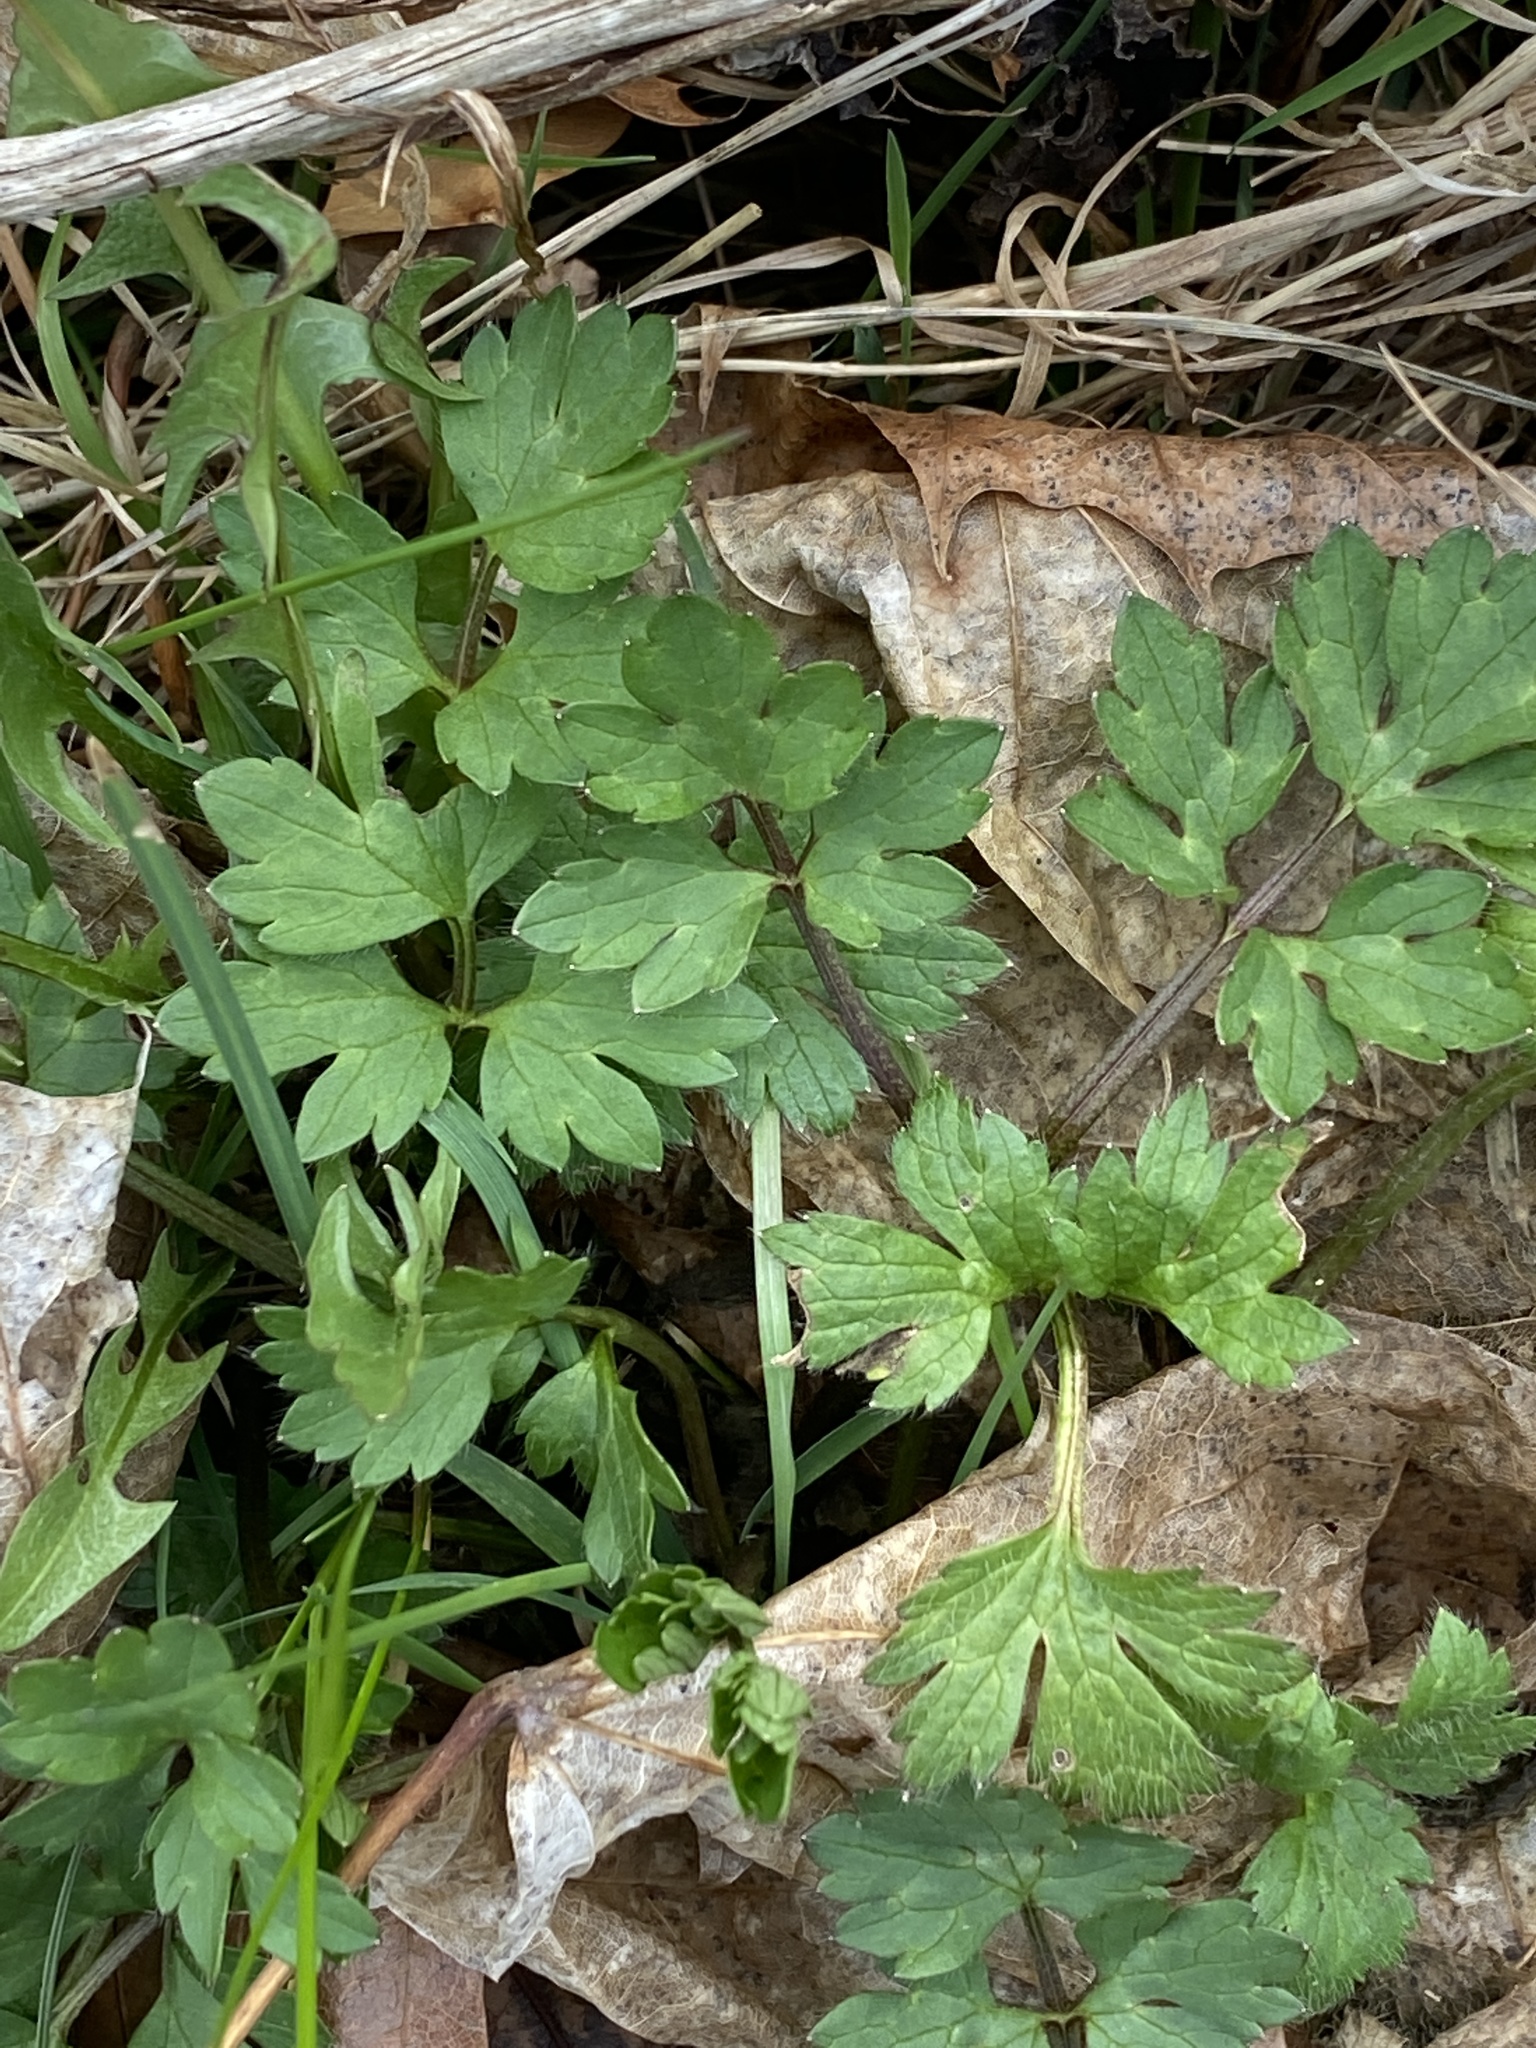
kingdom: Plantae
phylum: Tracheophyta
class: Magnoliopsida
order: Ranunculales
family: Ranunculaceae
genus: Ranunculus
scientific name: Ranunculus repens
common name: Creeping buttercup
